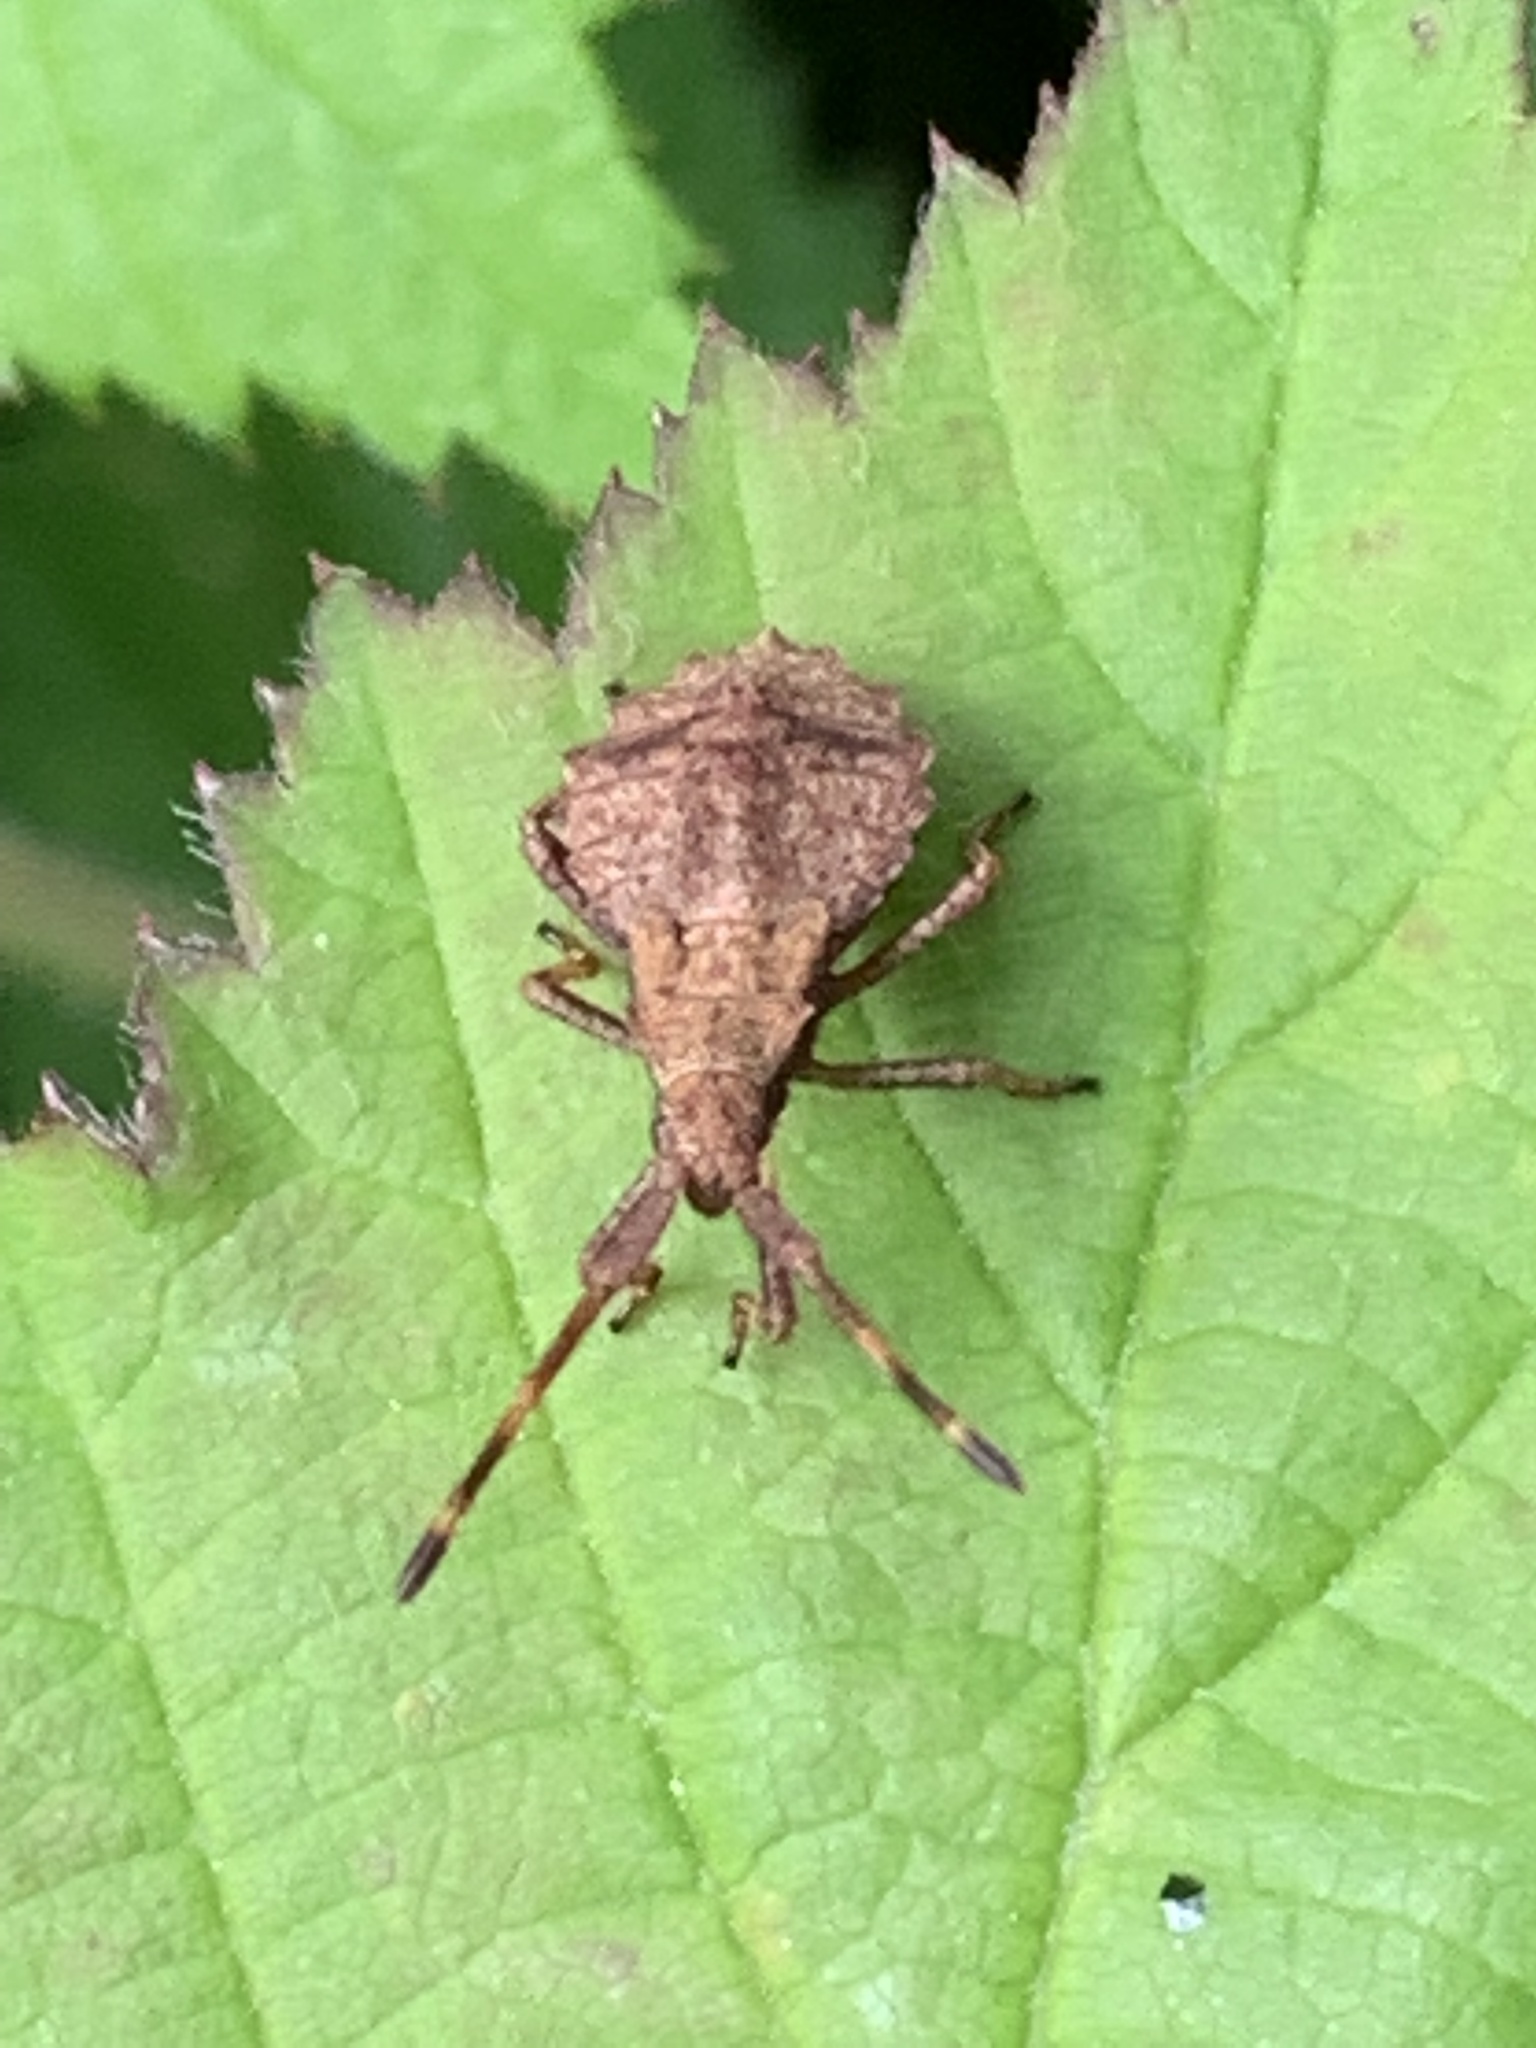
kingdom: Animalia
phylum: Arthropoda
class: Insecta
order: Hemiptera
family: Coreidae
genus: Coreus
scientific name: Coreus marginatus
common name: Dock bug
